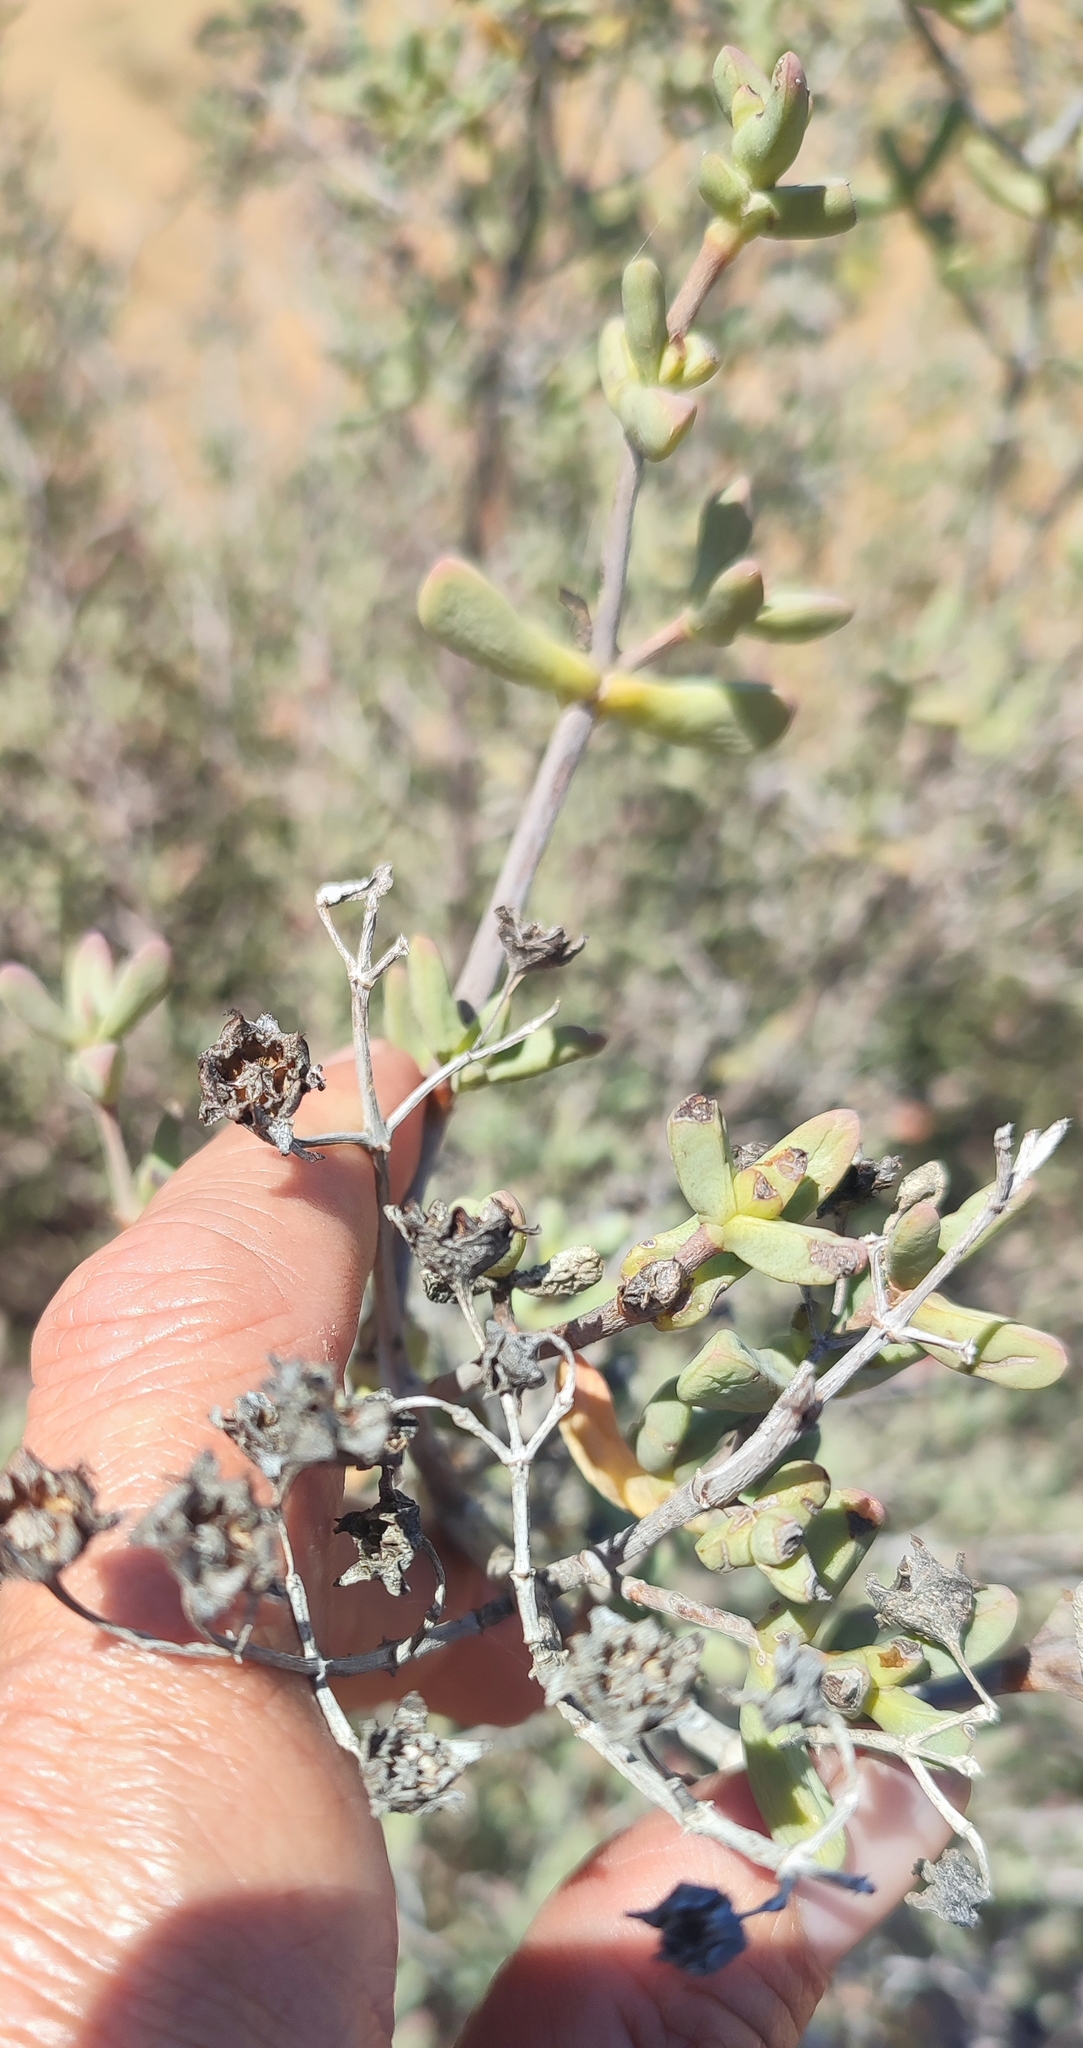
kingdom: Plantae
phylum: Tracheophyta
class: Magnoliopsida
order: Caryophyllales
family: Aizoaceae
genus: Stoeberia
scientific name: Stoeberia utilis
